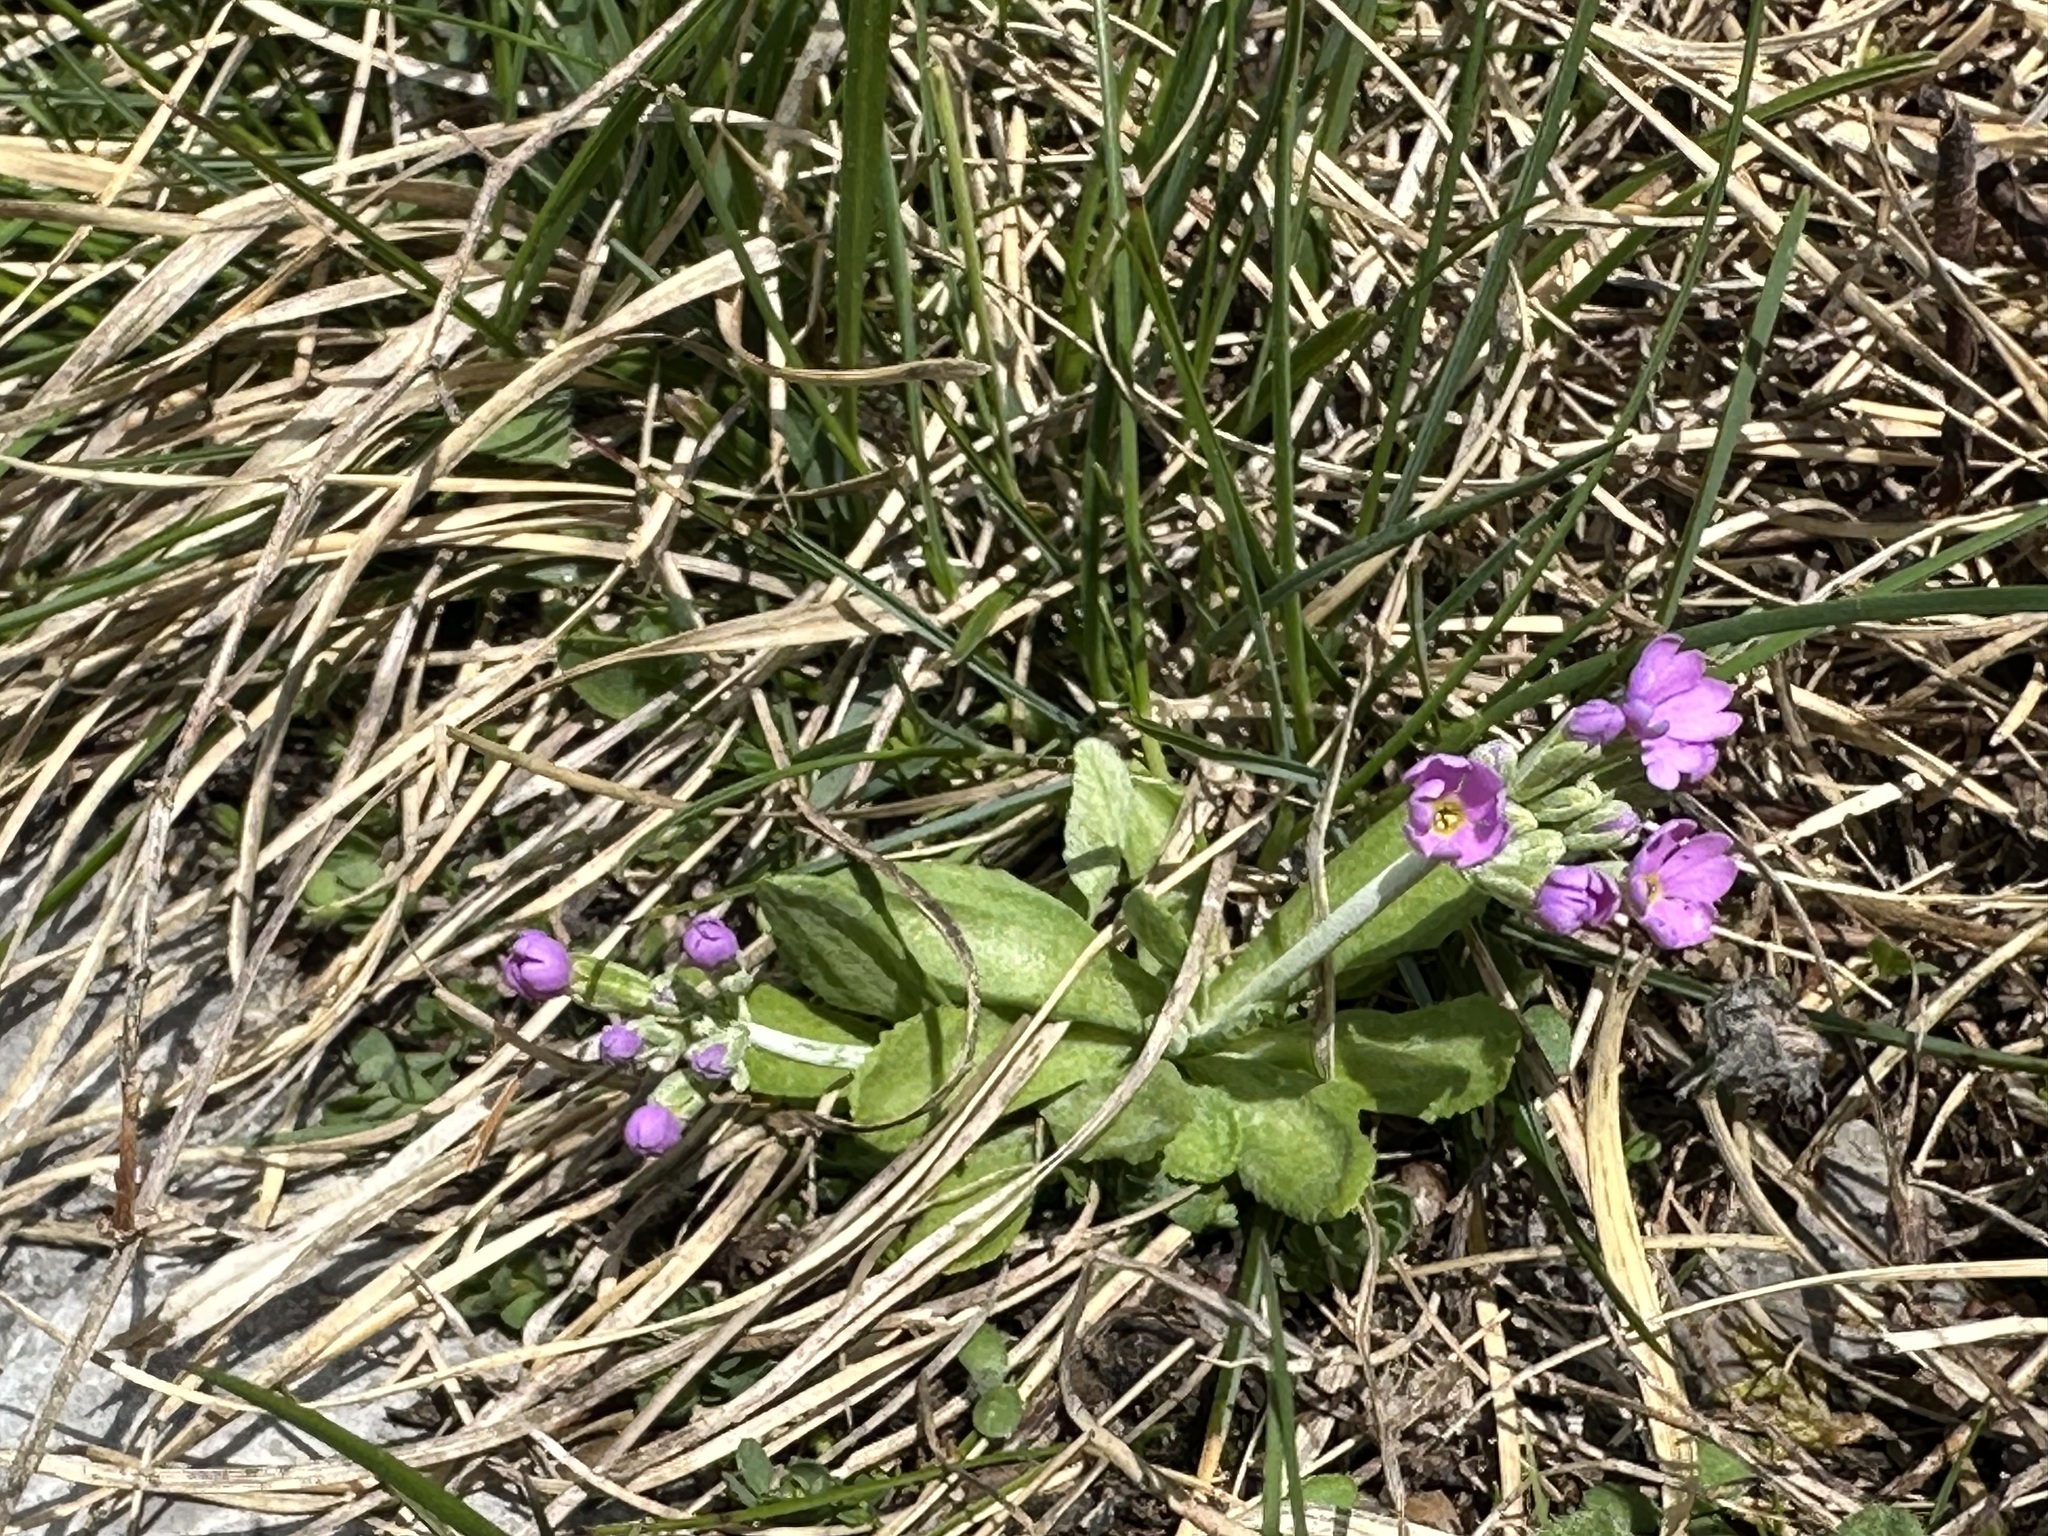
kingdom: Plantae
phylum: Tracheophyta
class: Magnoliopsida
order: Ericales
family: Primulaceae
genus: Primula
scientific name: Primula farinosa
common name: Bird's-eye primrose
